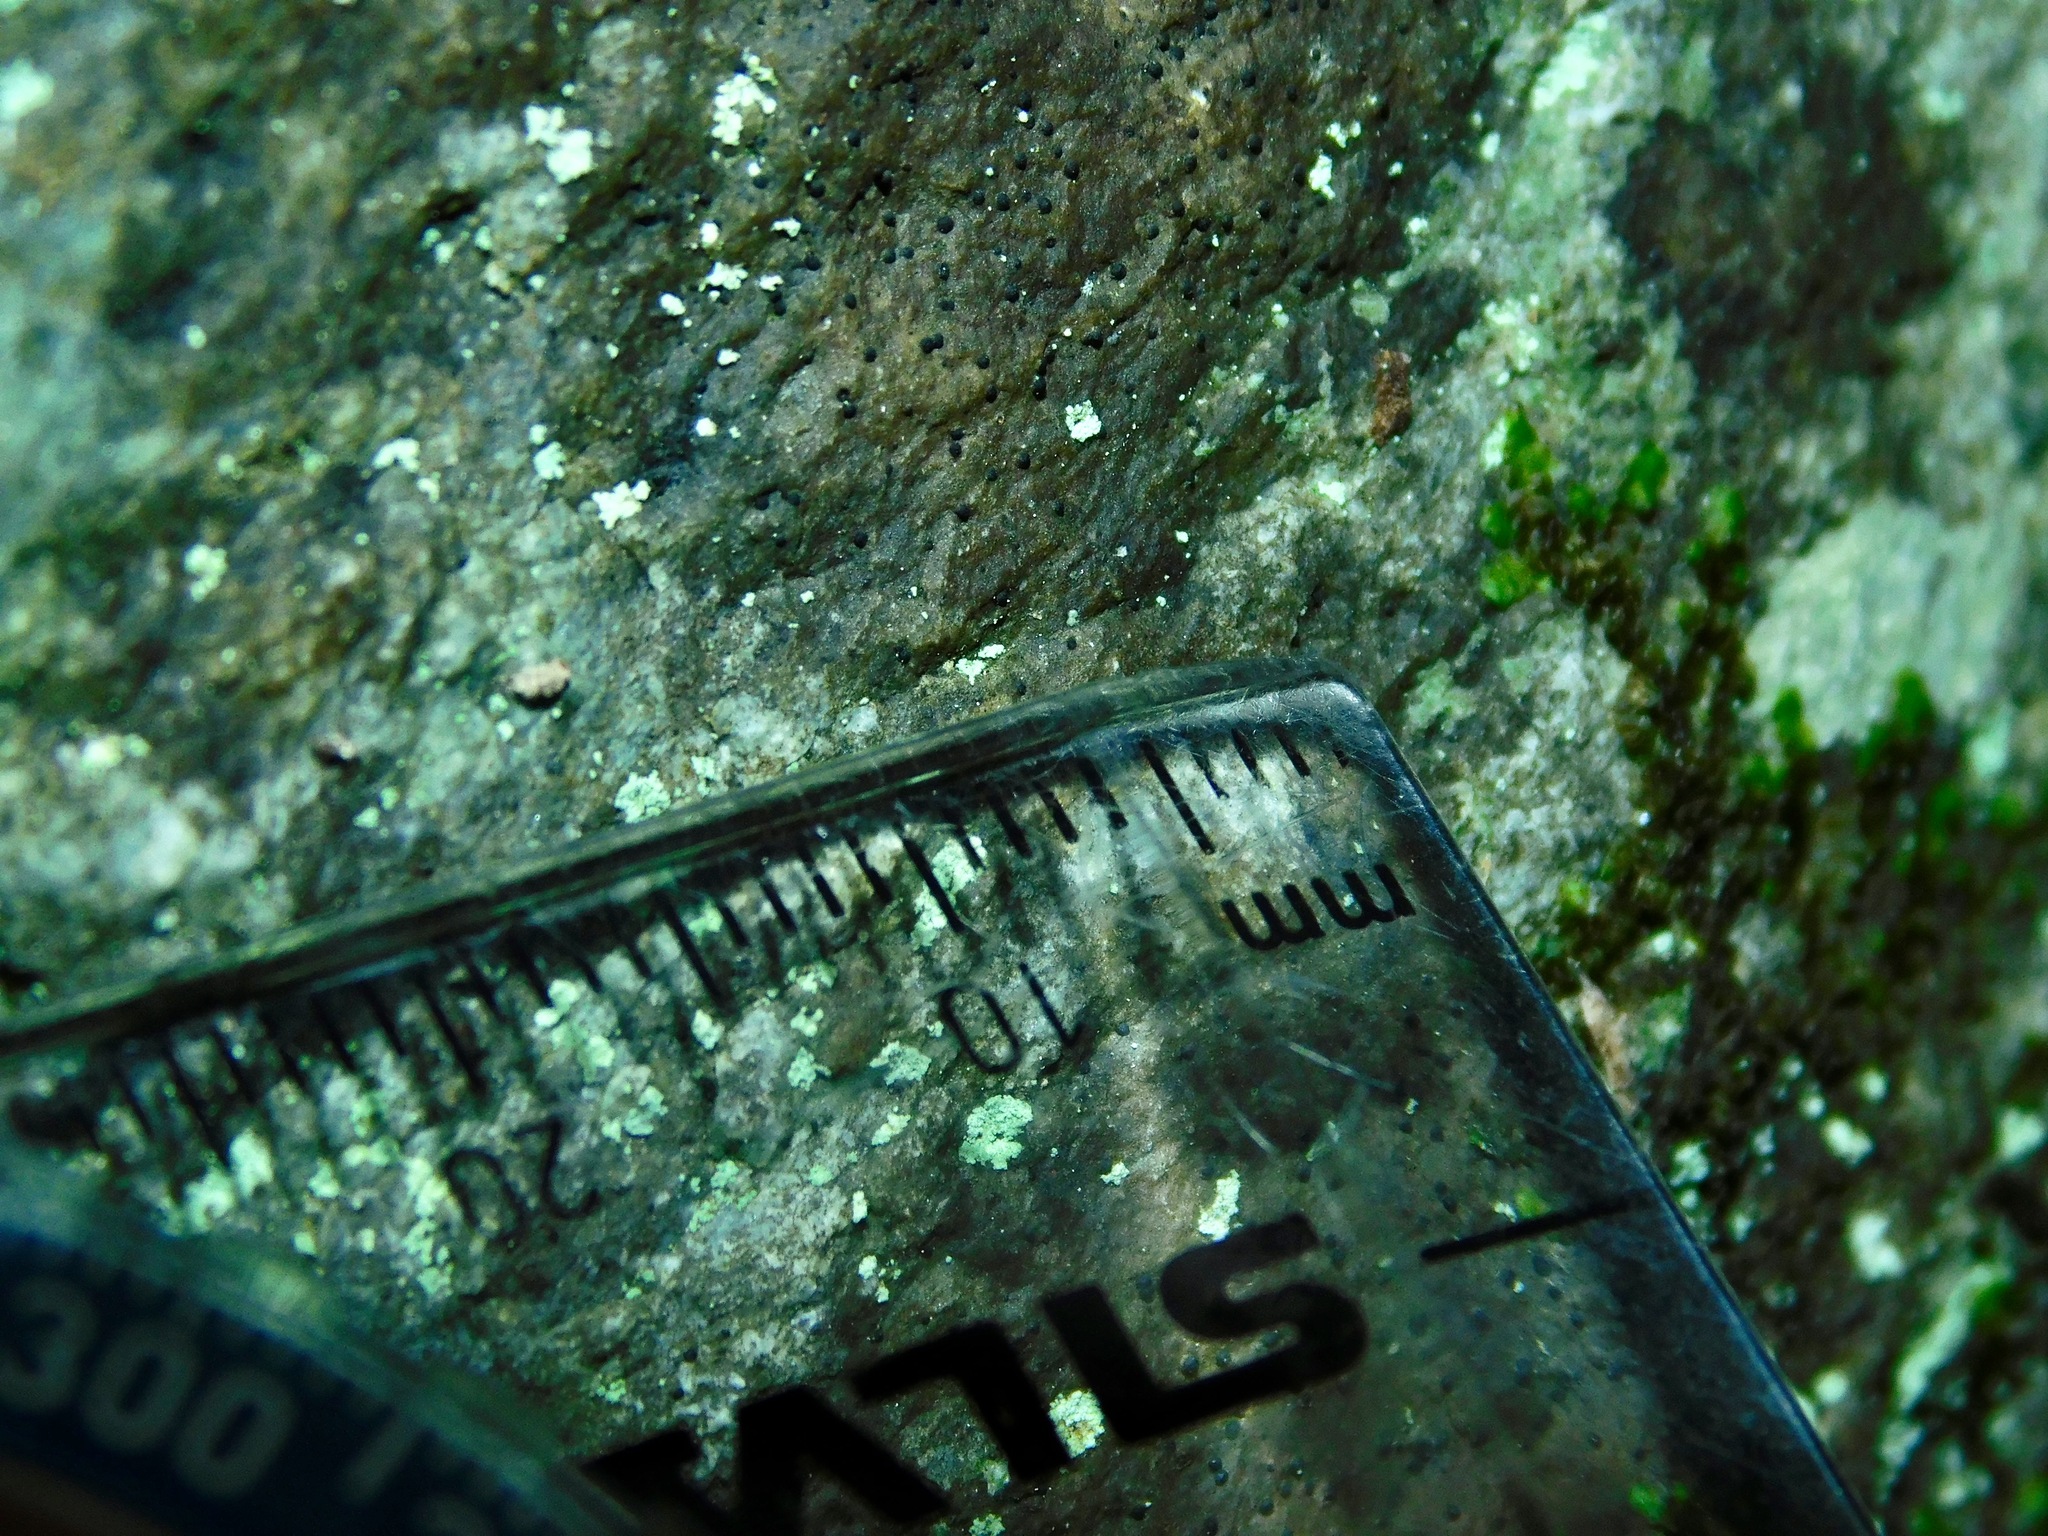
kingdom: Fungi
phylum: Ascomycota
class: Lecanoromycetes
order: Ostropales
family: Porinaceae
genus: Pseudosagedia
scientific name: Pseudosagedia guentheri
